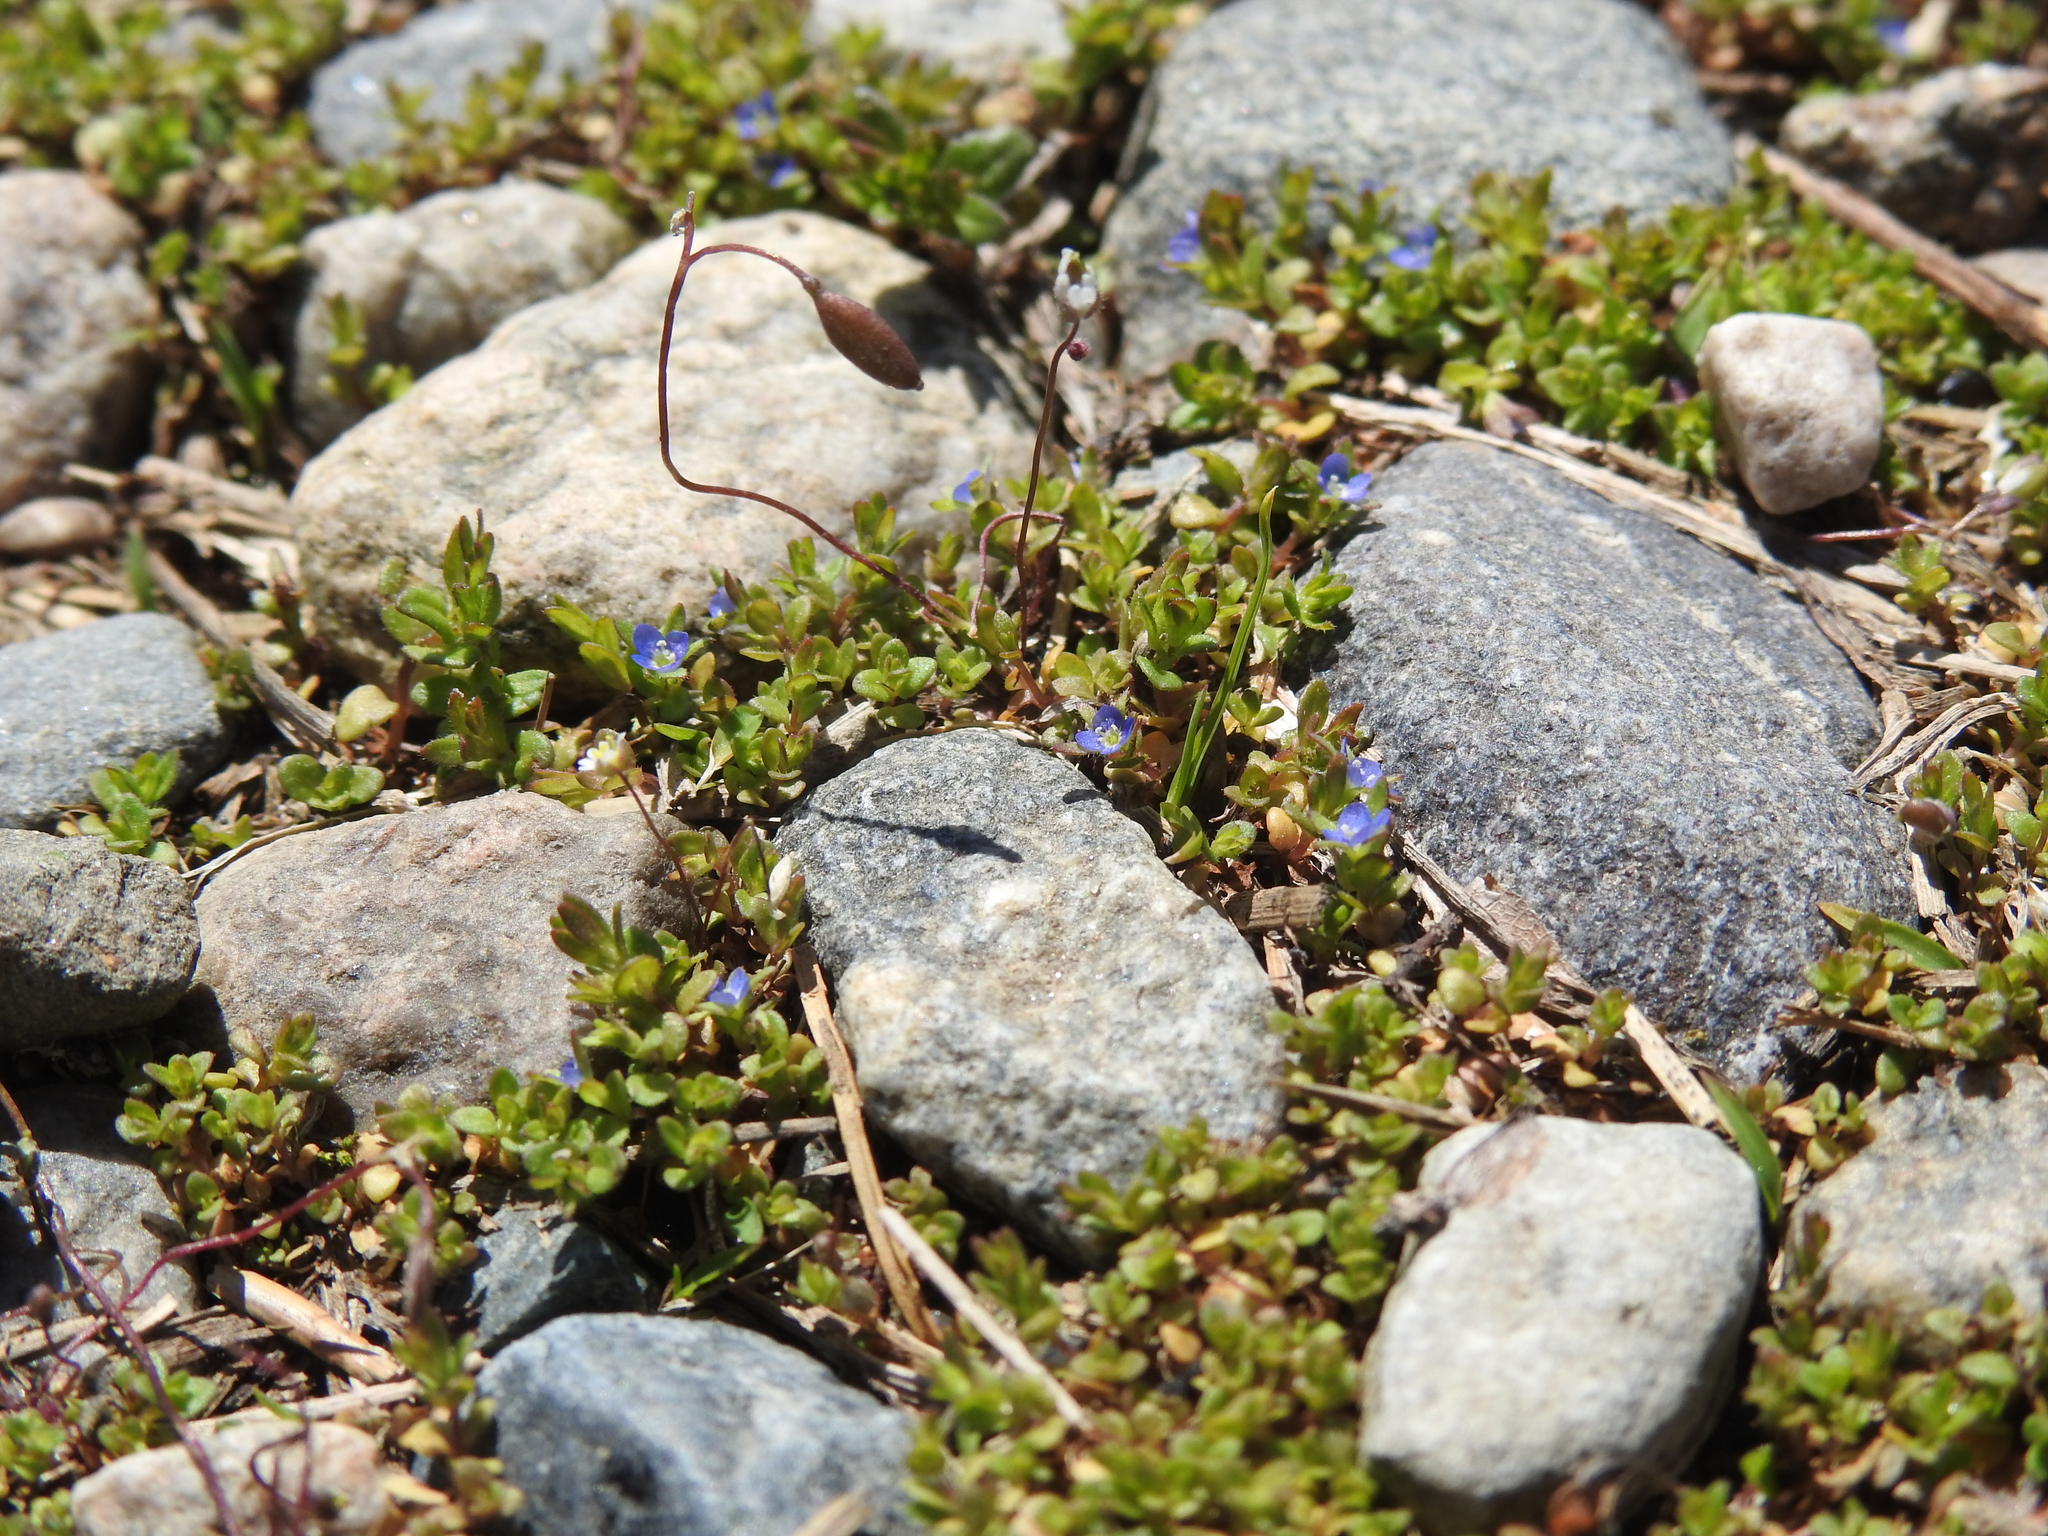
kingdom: Plantae
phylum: Tracheophyta
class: Magnoliopsida
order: Lamiales
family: Plantaginaceae
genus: Veronica
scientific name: Veronica arvensis
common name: Corn speedwell
